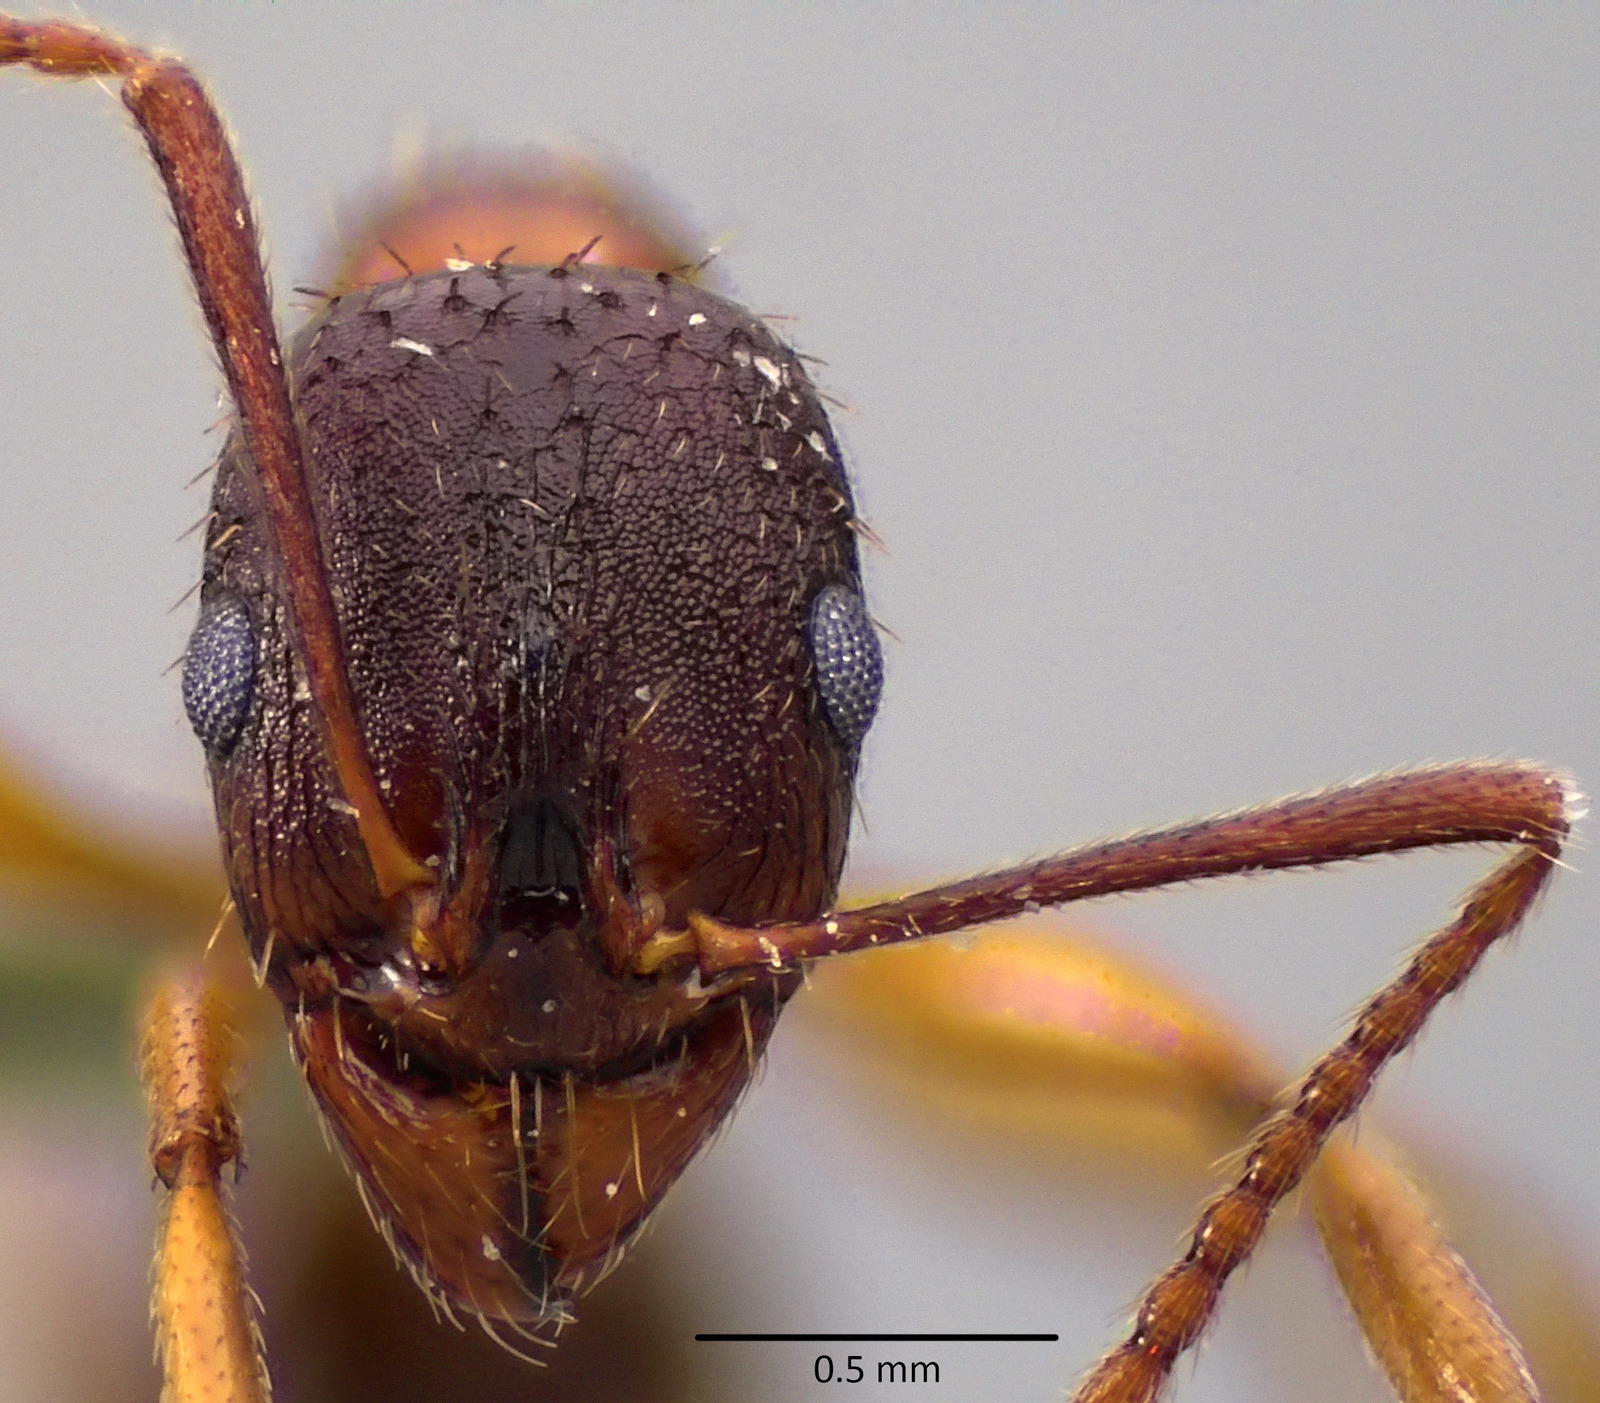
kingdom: Animalia
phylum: Arthropoda
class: Insecta
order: Hymenoptera
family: Formicidae
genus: Aphaenogaster
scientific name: Aphaenogaster rudis
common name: Winnow ant
